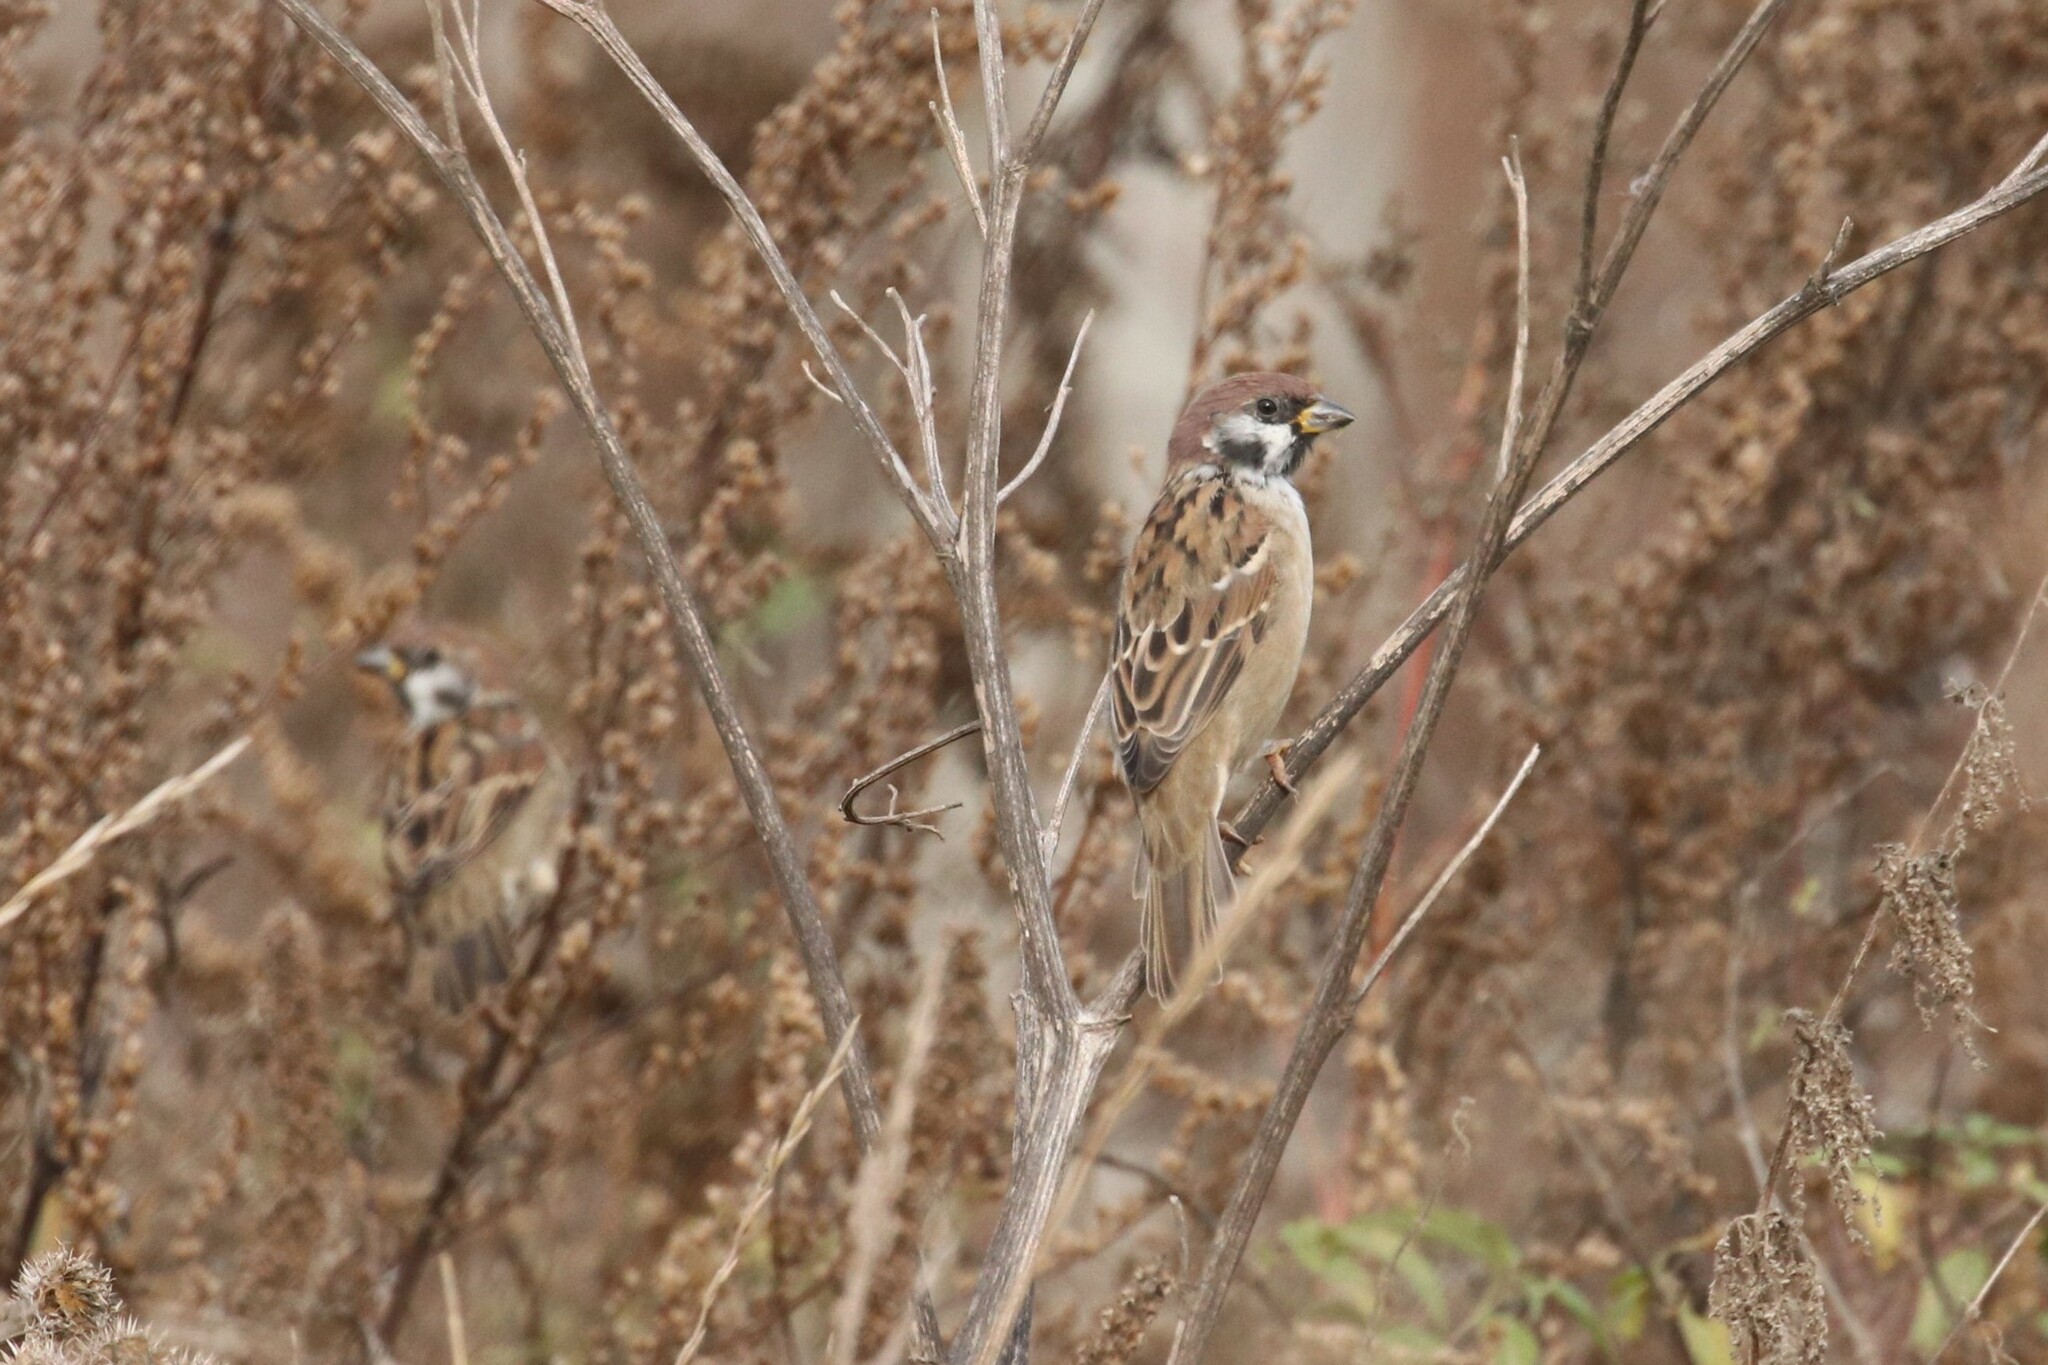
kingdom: Animalia
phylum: Chordata
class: Aves
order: Passeriformes
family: Passeridae
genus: Passer
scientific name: Passer montanus
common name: Eurasian tree sparrow
